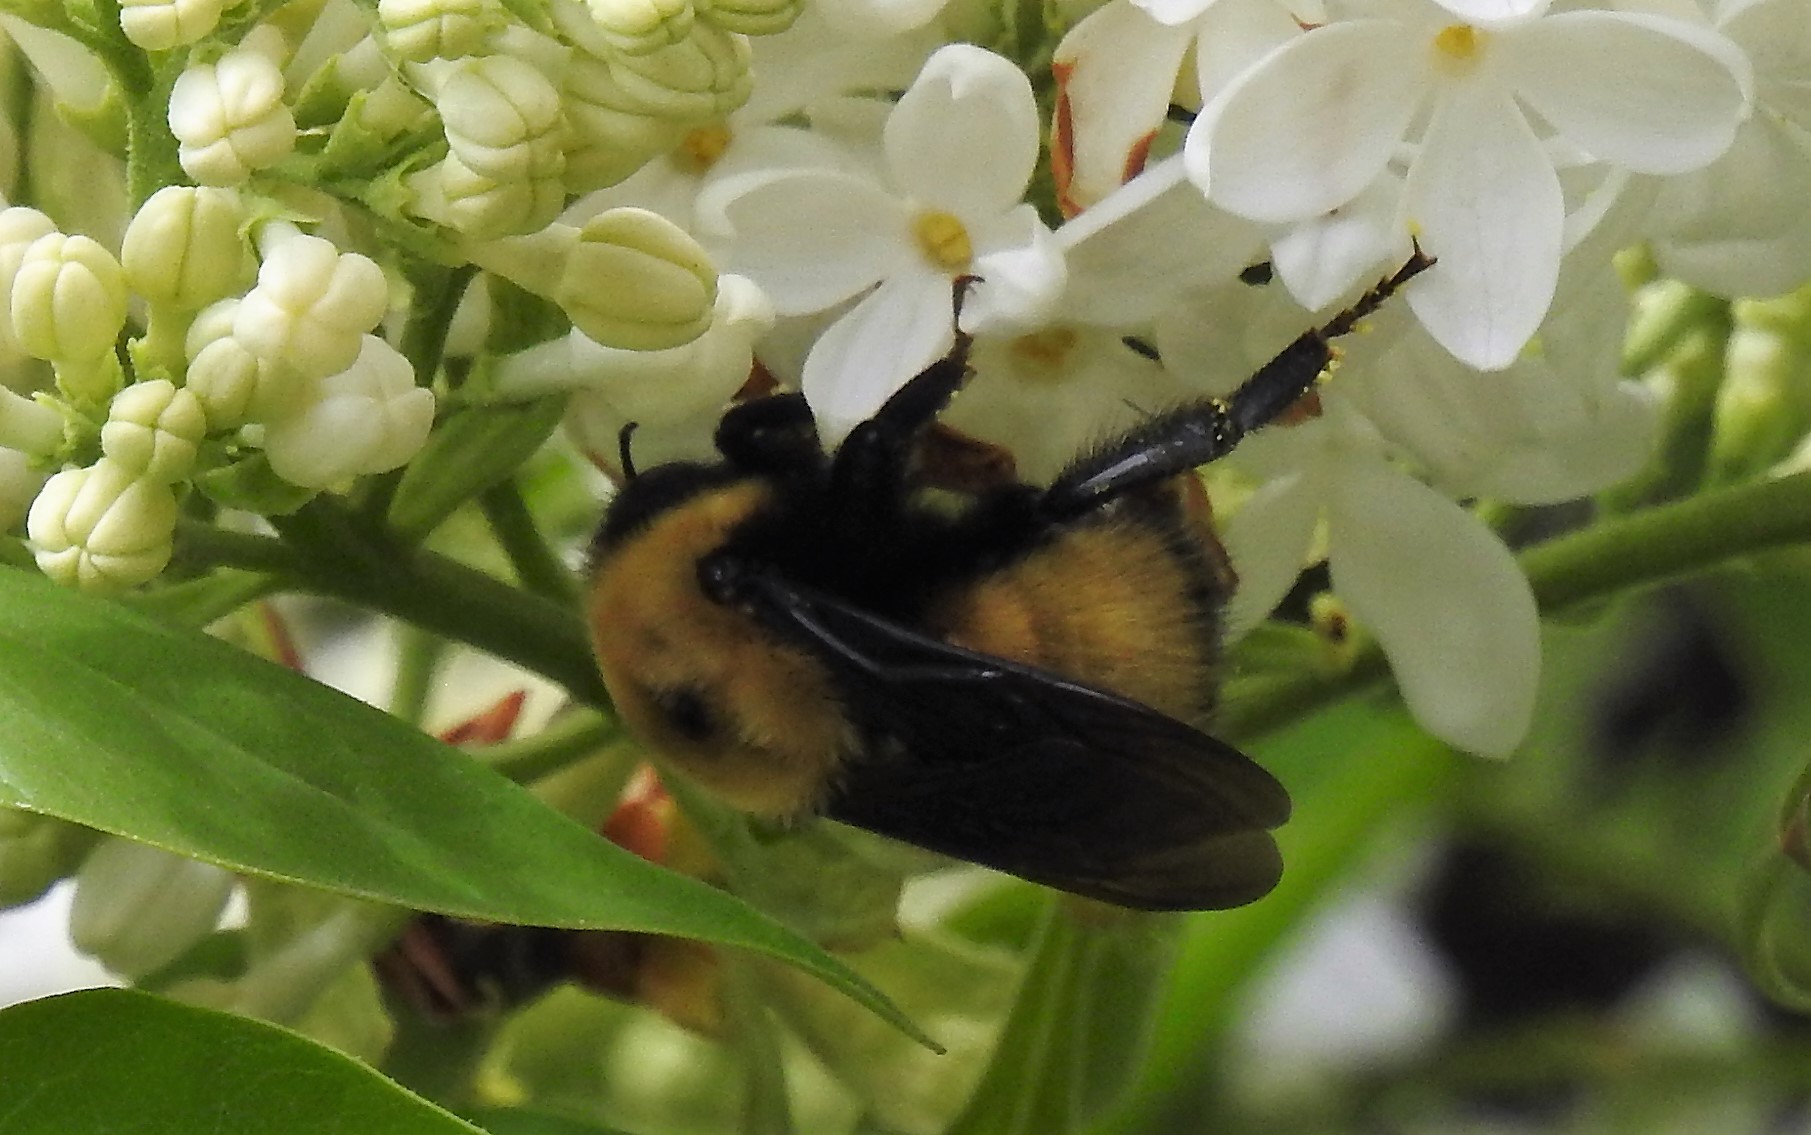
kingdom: Animalia
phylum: Arthropoda
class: Insecta
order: Hymenoptera
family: Apidae
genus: Bombus
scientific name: Bombus nevadensis
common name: Nevada bumble bee
